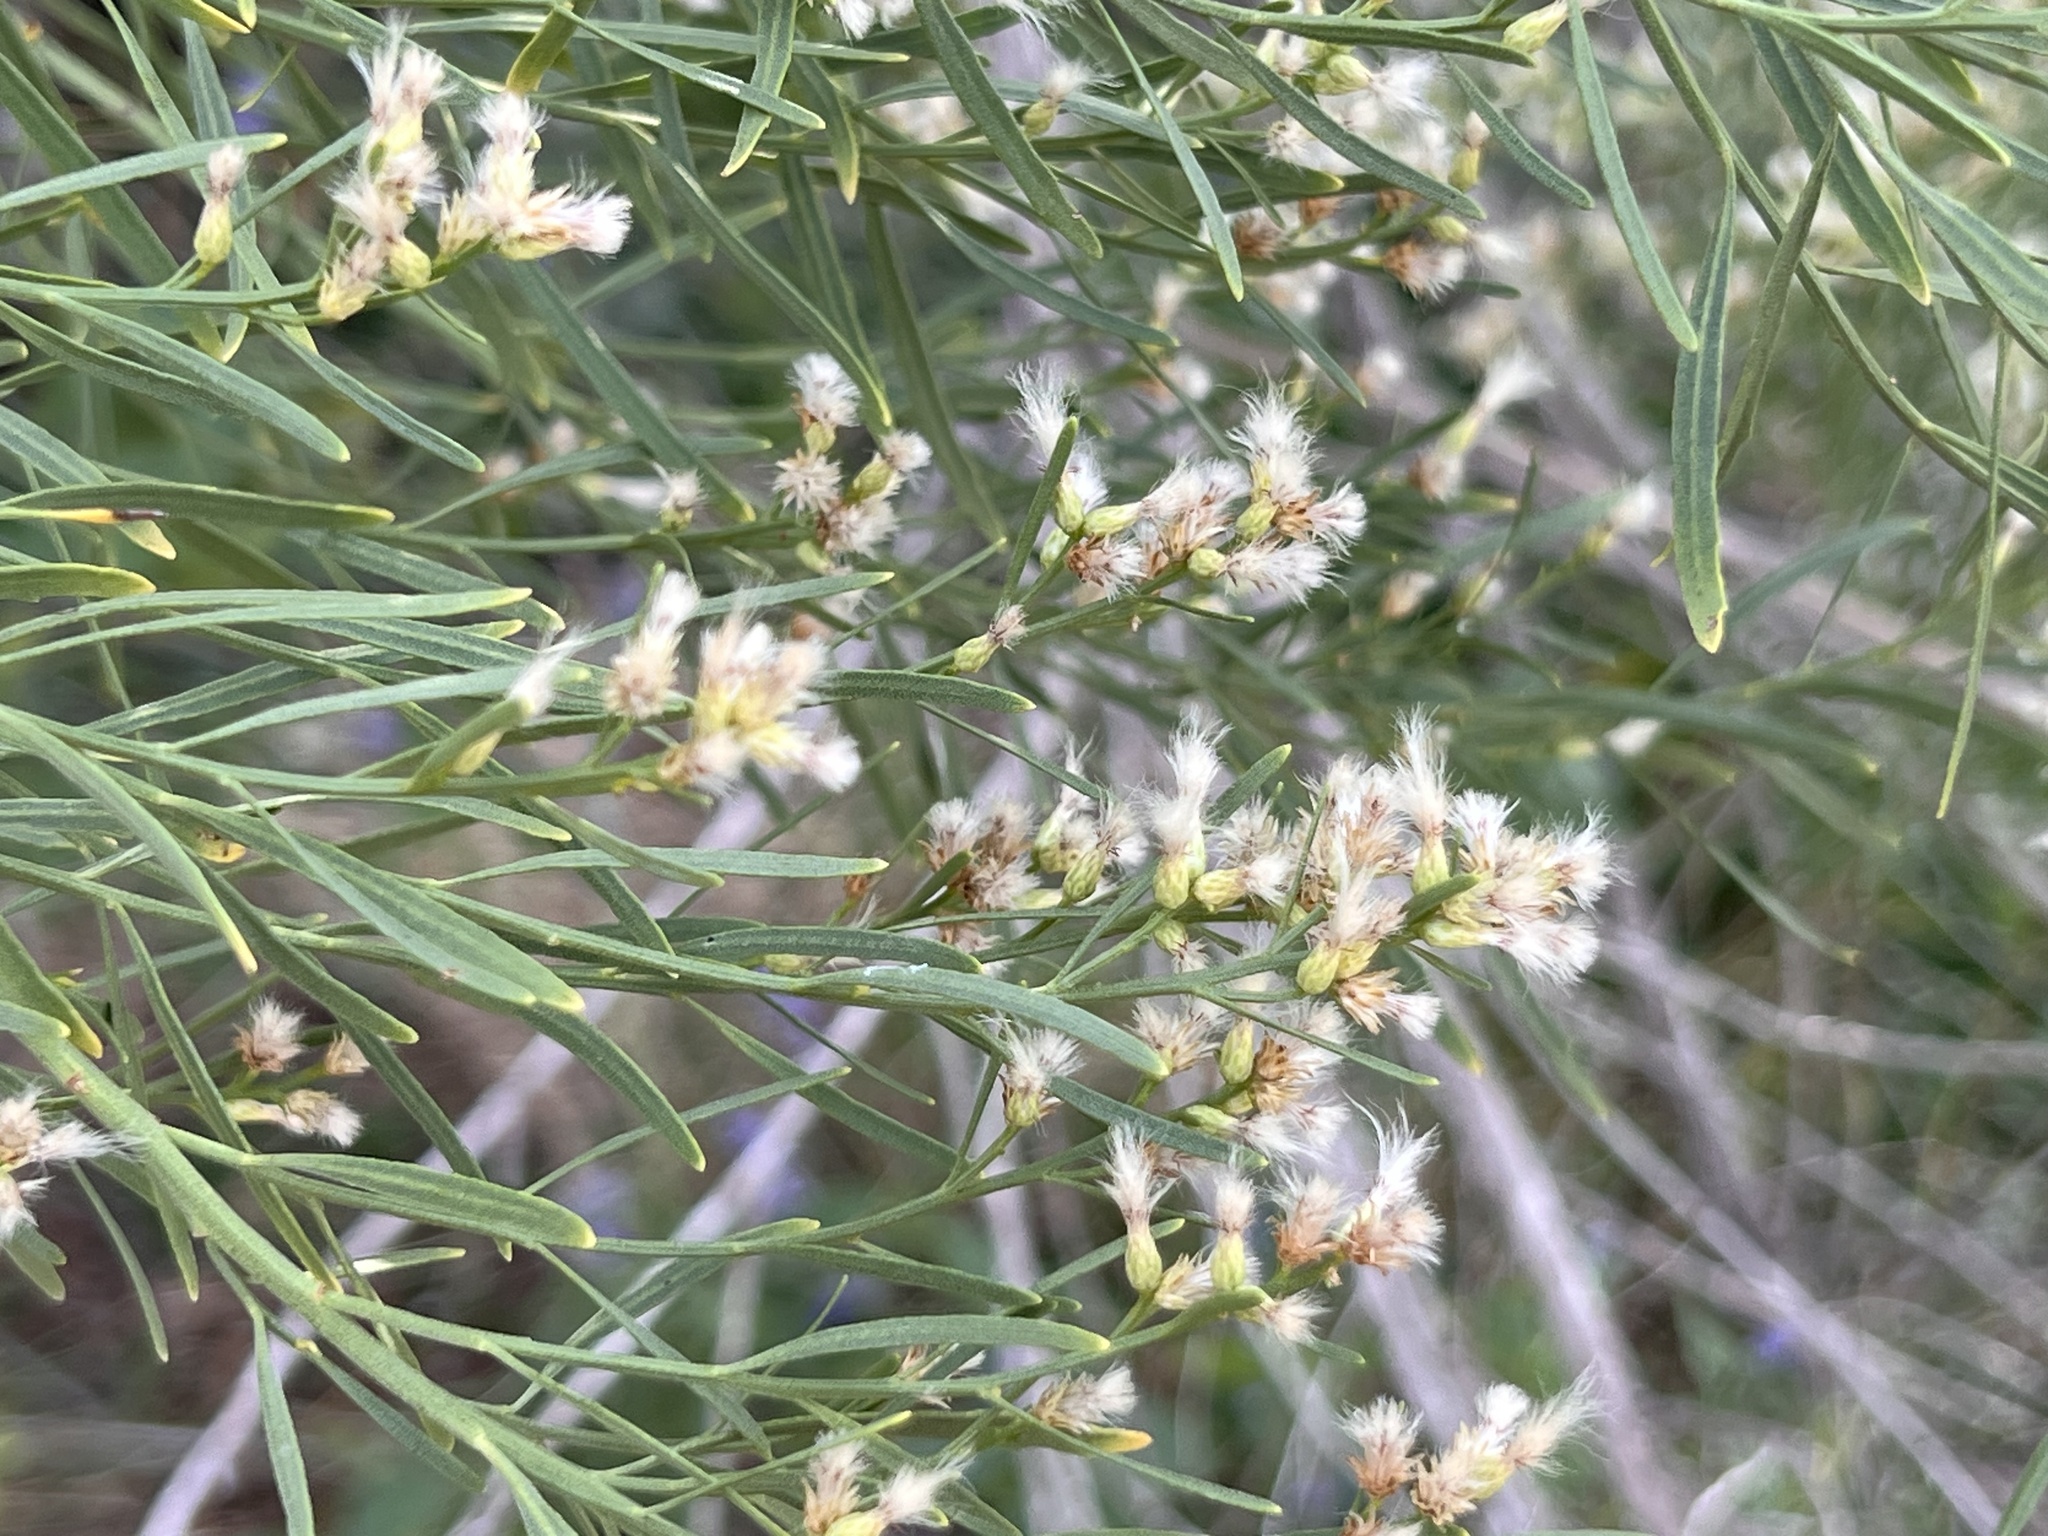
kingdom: Plantae
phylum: Tracheophyta
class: Magnoliopsida
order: Asterales
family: Asteraceae
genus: Baccharis
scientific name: Baccharis neglecta
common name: Roosevelt-weed
